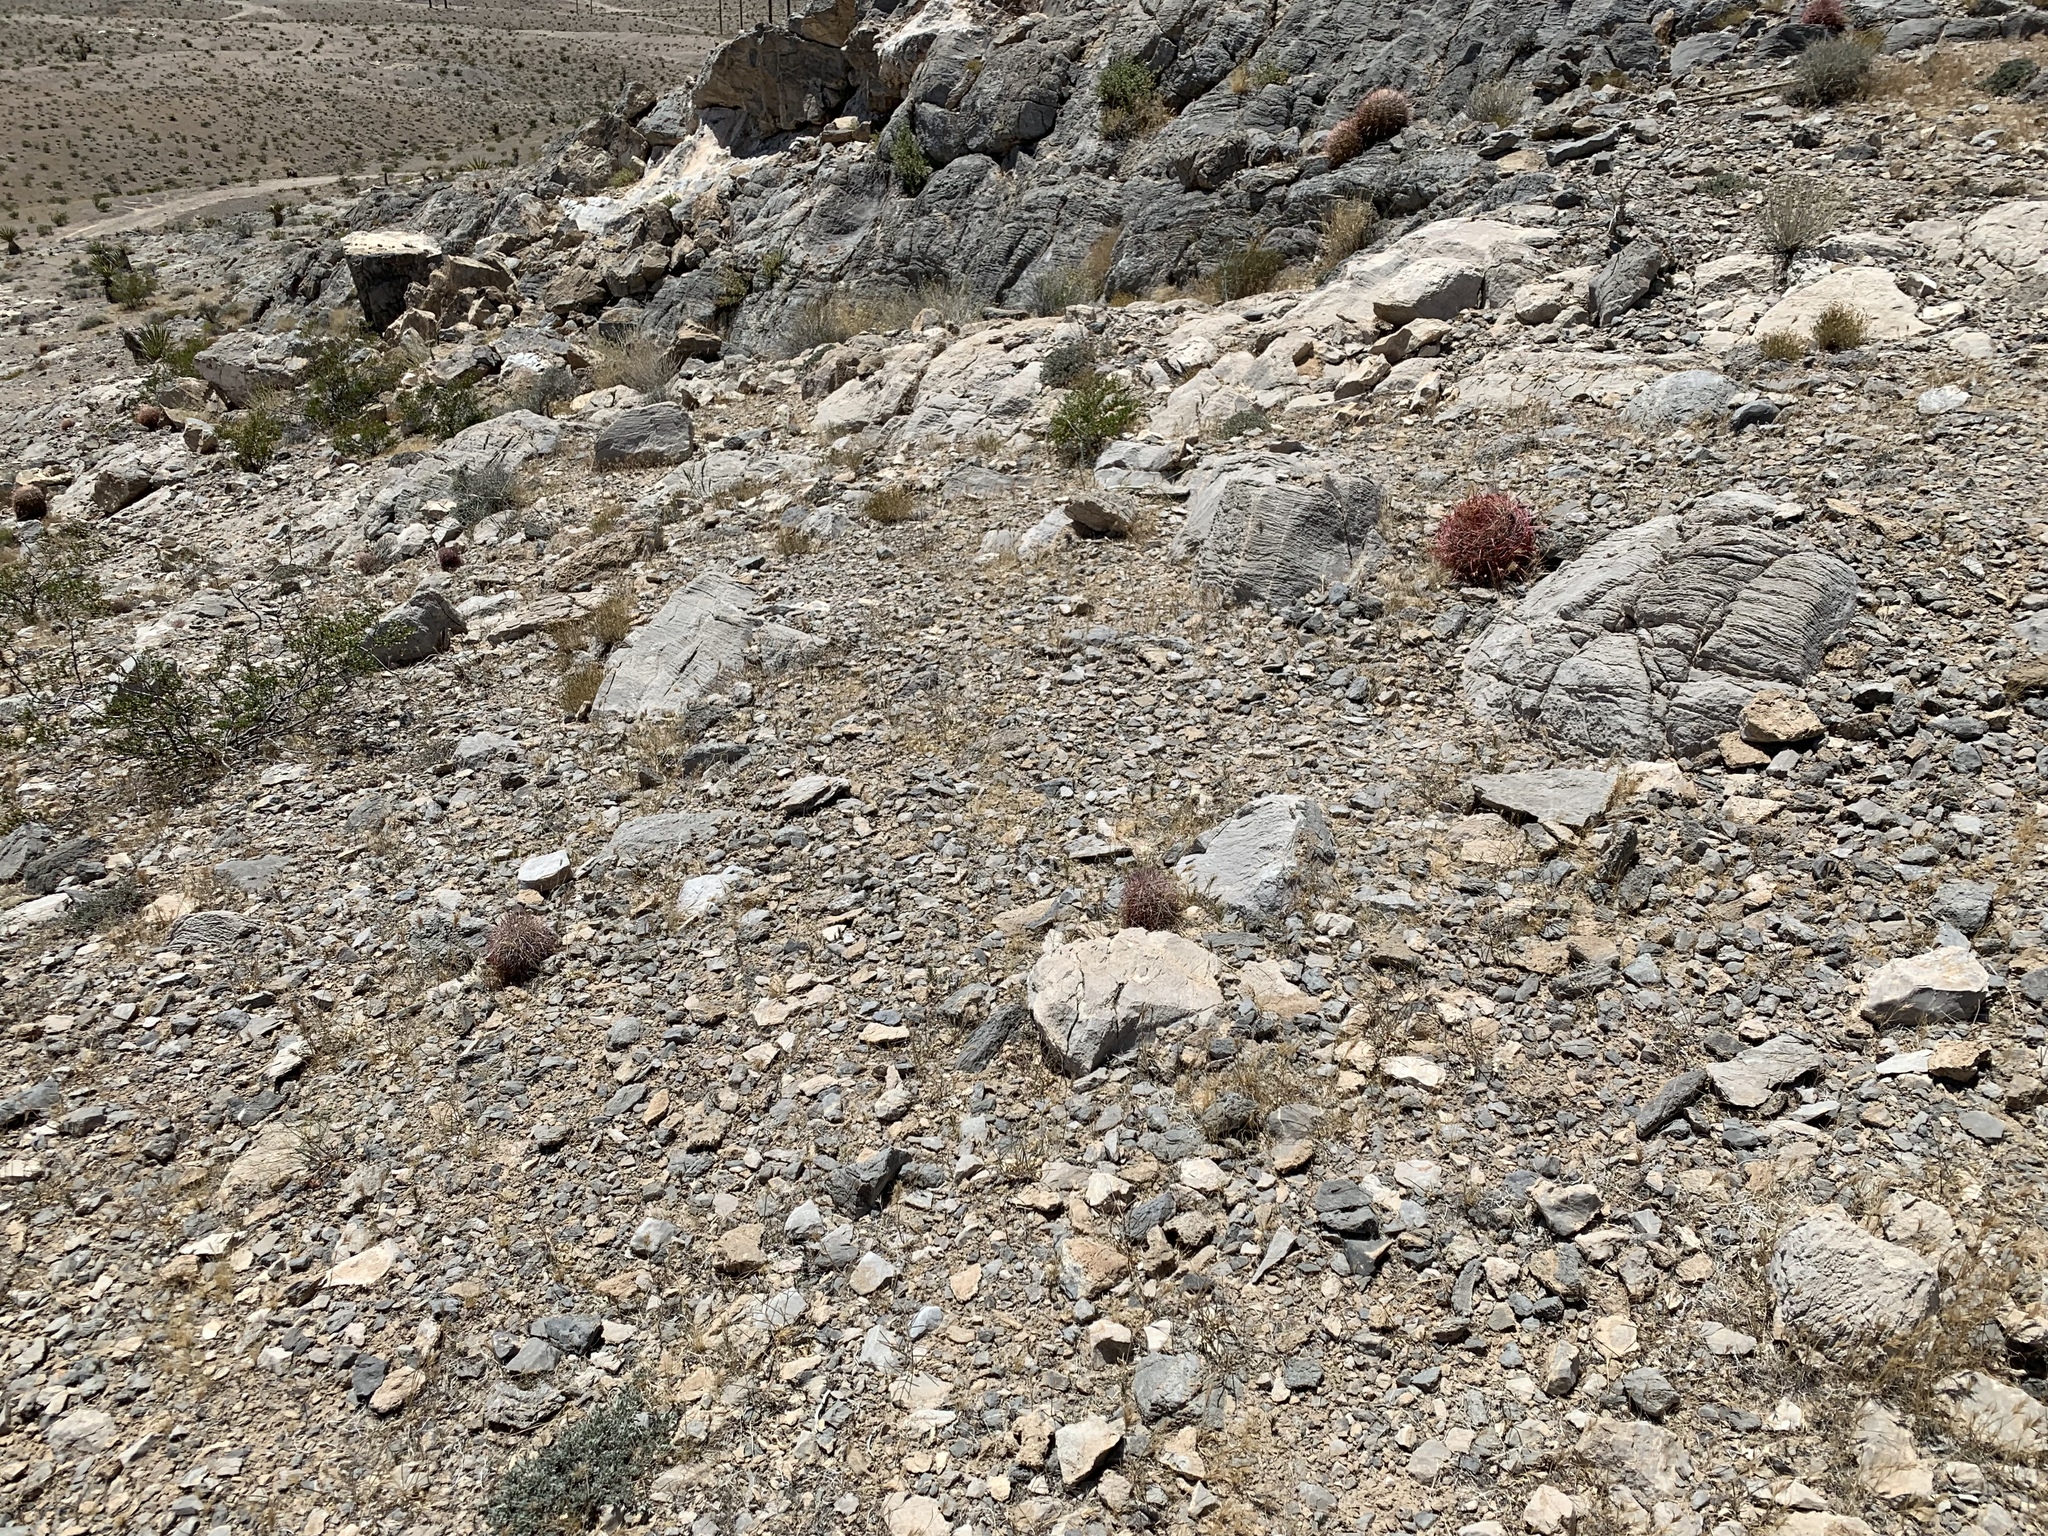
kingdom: Plantae
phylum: Tracheophyta
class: Magnoliopsida
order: Caryophyllales
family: Cactaceae
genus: Sclerocactus
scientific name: Sclerocactus johnsonii
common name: Eight-spine fishhook cactus
